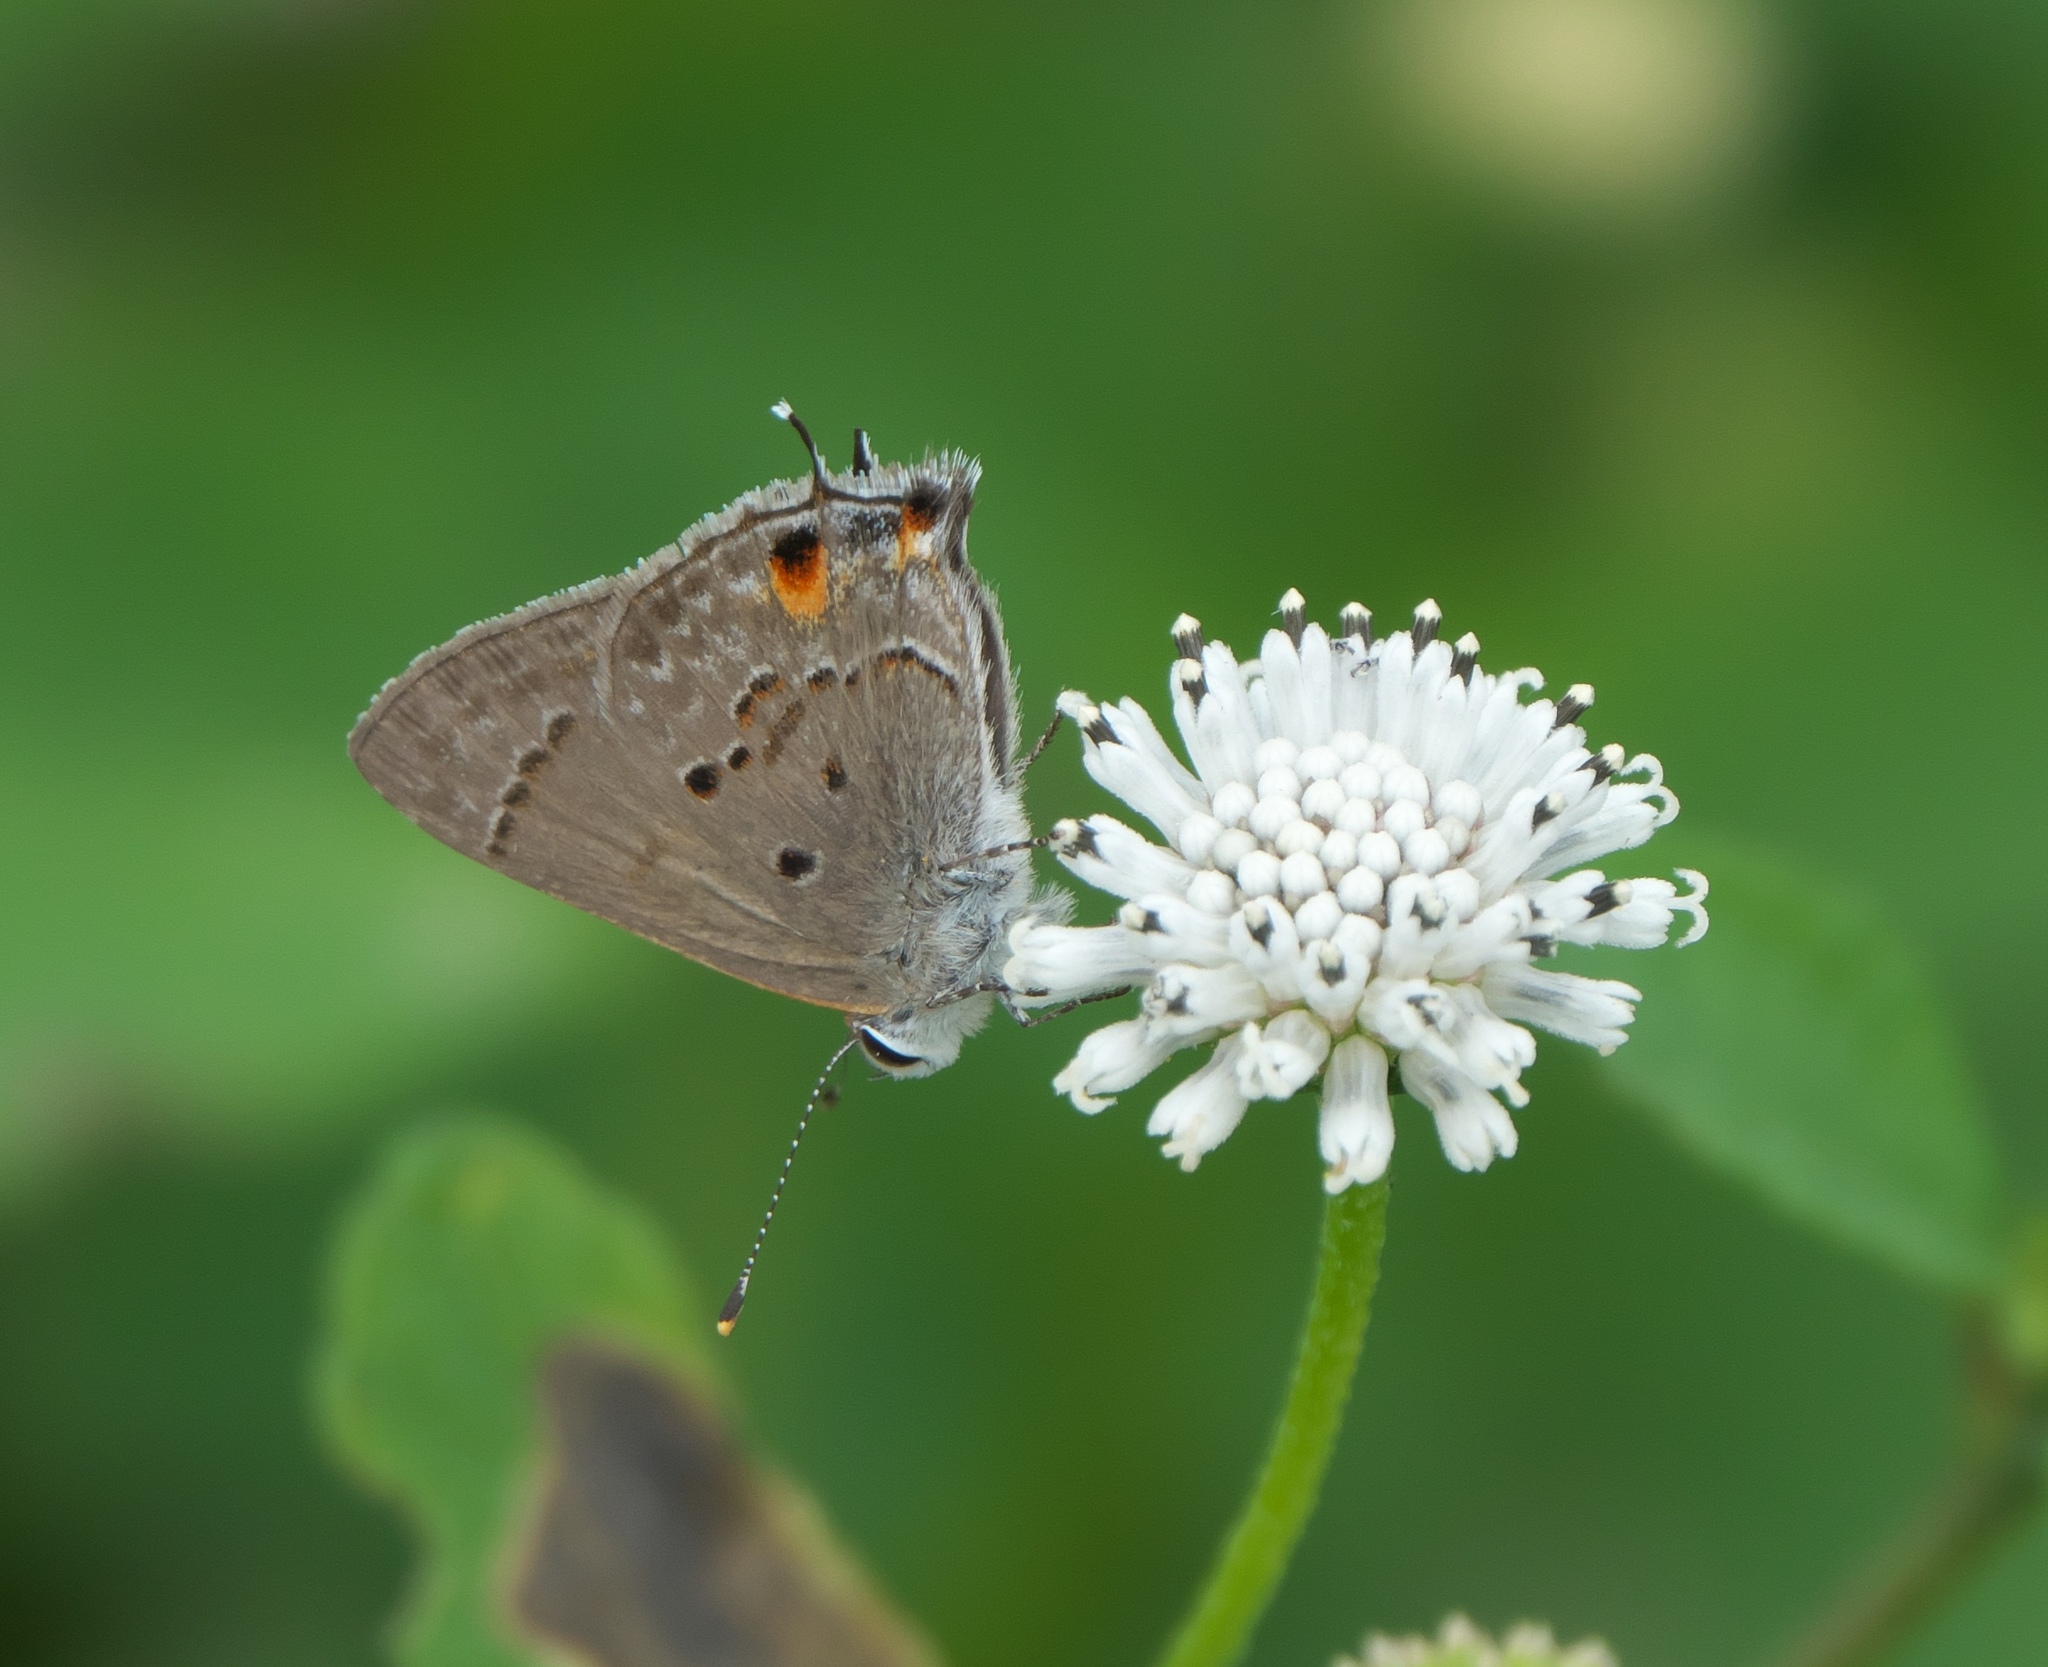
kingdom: Animalia
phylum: Arthropoda
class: Insecta
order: Lepidoptera
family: Lycaenidae
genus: Callicista
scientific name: Callicista columella
